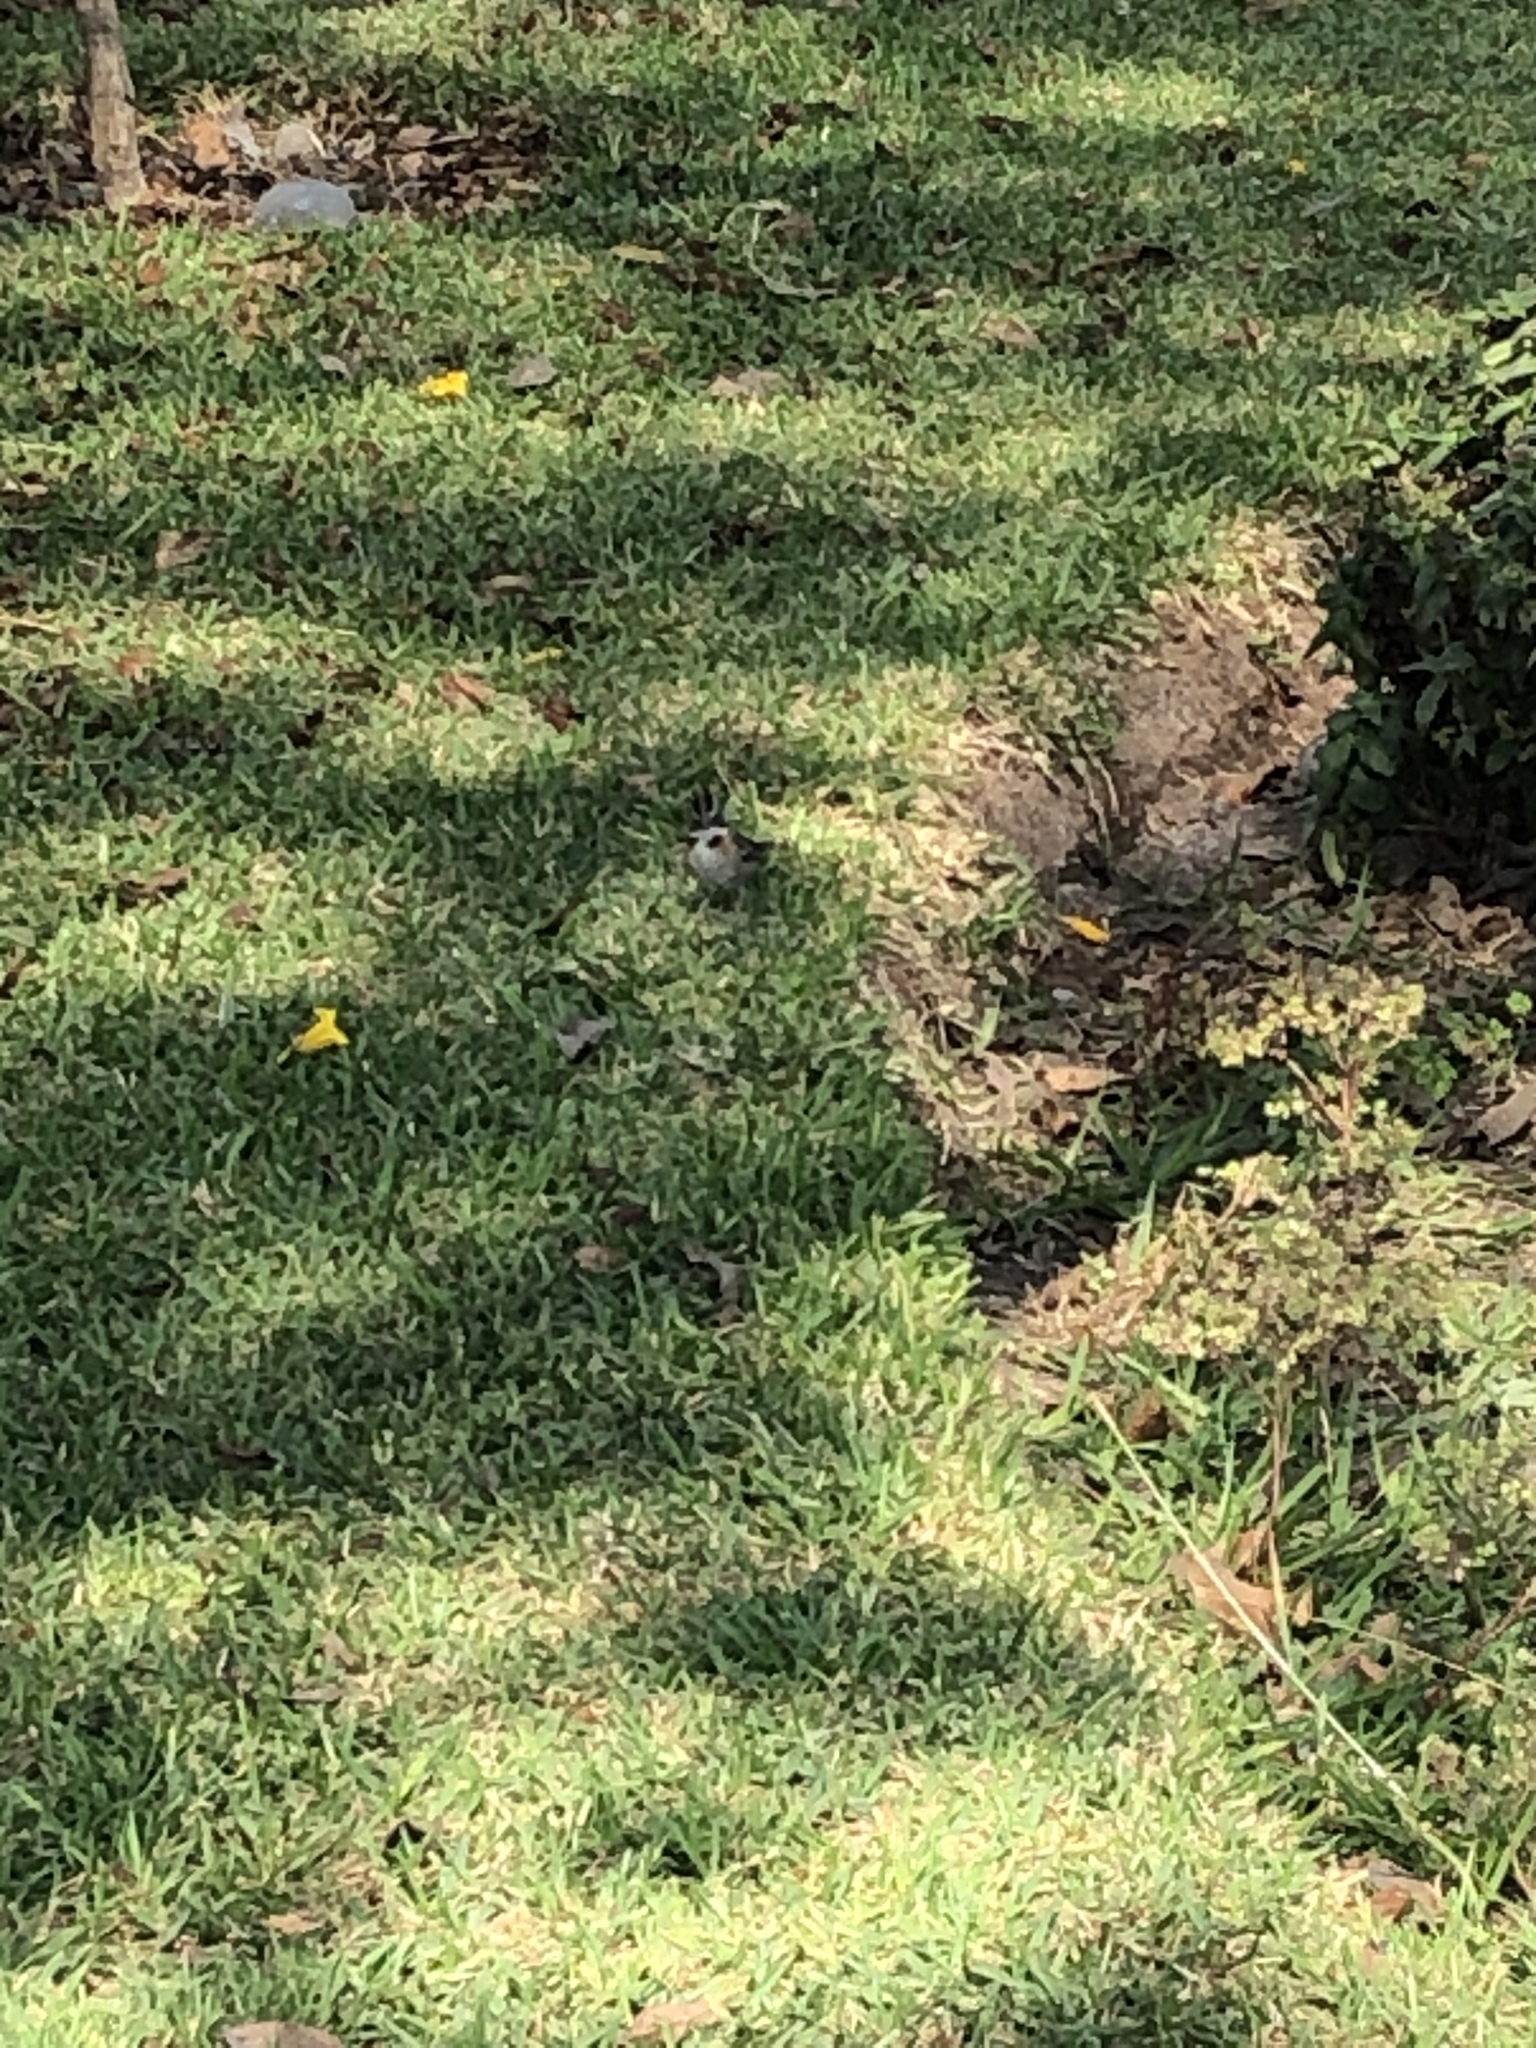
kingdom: Animalia
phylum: Chordata
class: Aves
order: Passeriformes
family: Passerellidae
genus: Zonotrichia
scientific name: Zonotrichia capensis
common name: Rufous-collared sparrow
